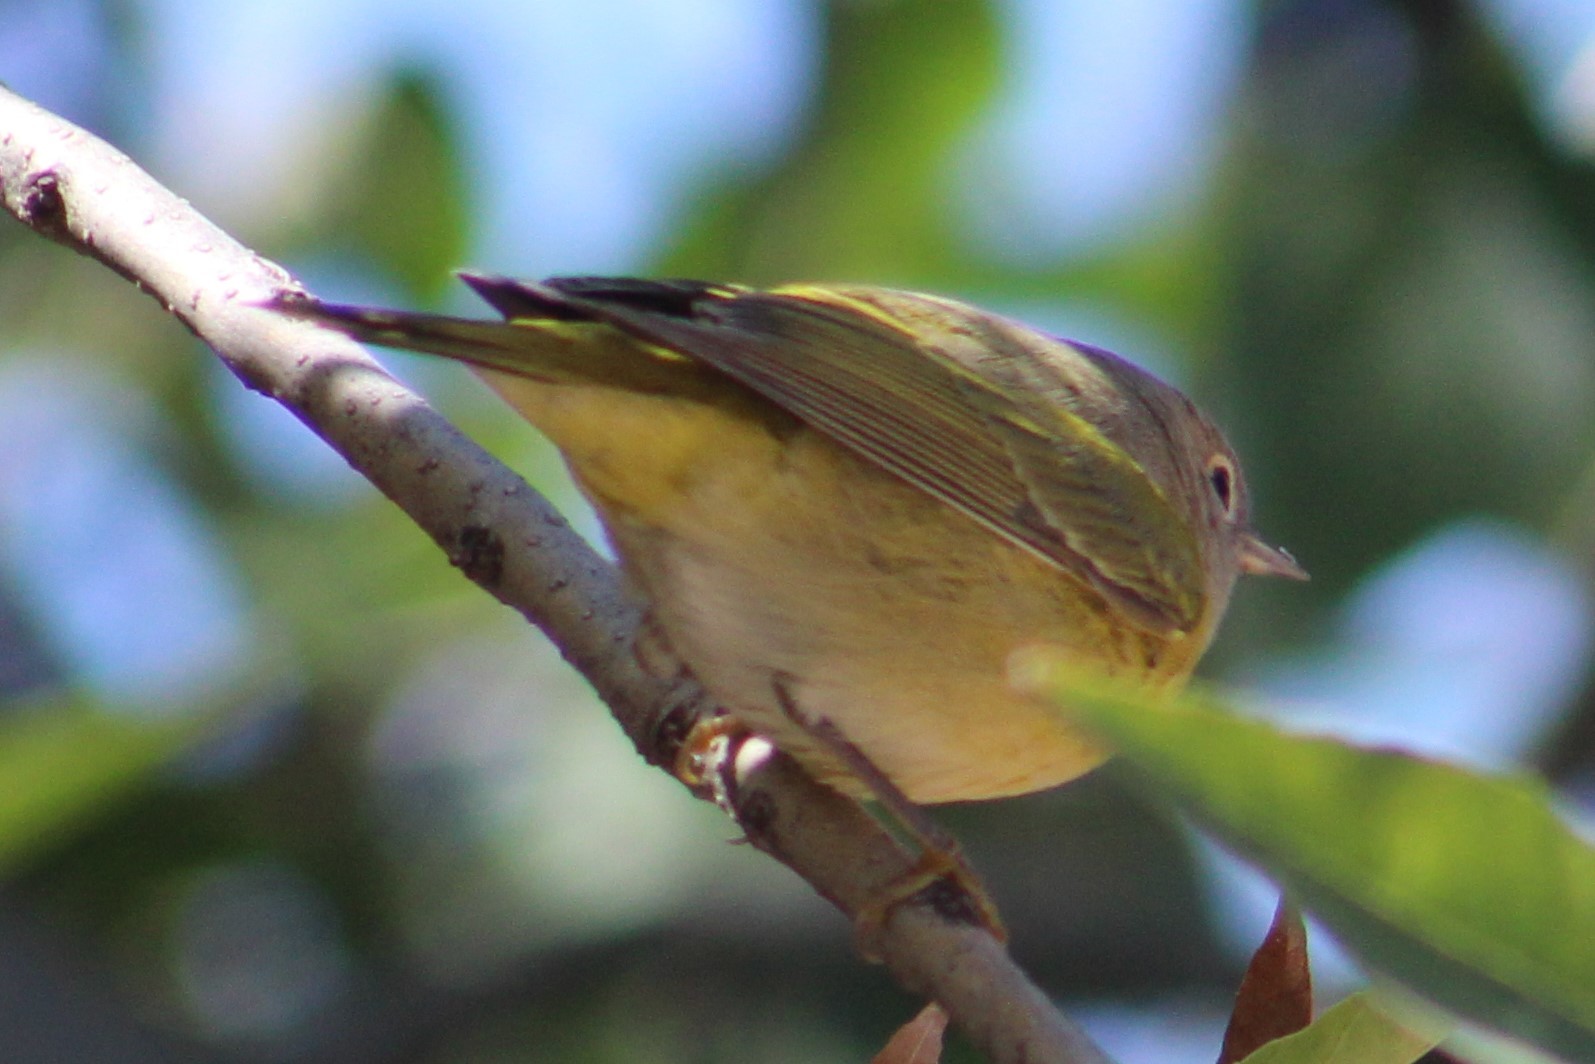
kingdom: Animalia
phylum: Chordata
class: Aves
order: Passeriformes
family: Parulidae
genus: Leiothlypis
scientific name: Leiothlypis ruficapilla
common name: Nashville warbler
